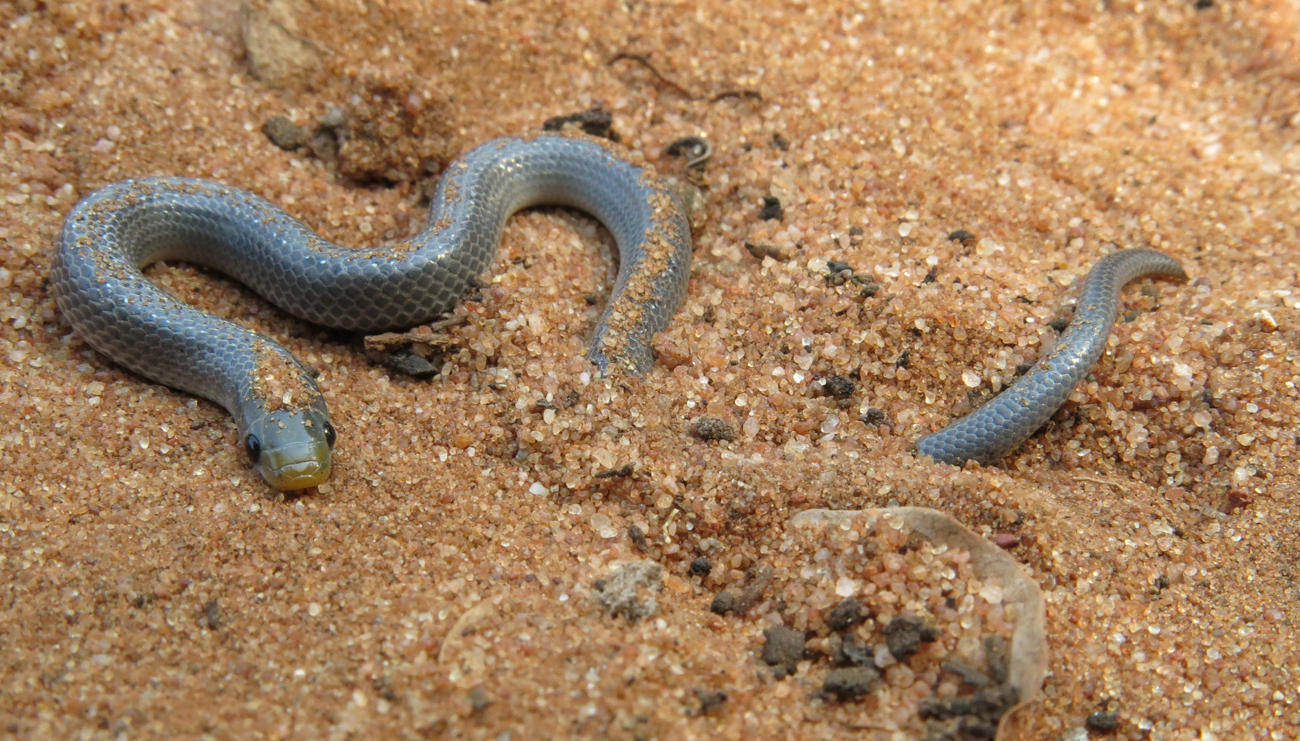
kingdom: Animalia
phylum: Chordata
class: Squamata
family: Prosymnidae
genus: Prosymna
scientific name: Prosymna stuhlmanni
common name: East african shovel-snout snake
